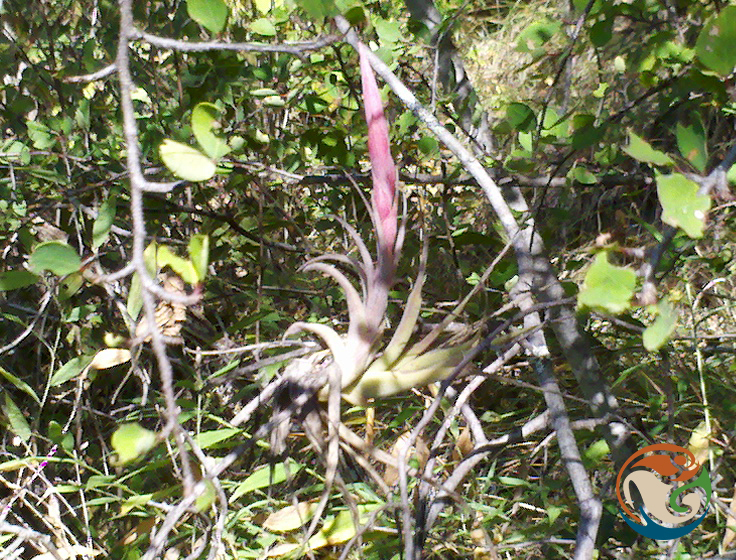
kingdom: Plantae
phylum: Tracheophyta
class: Liliopsida
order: Poales
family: Bromeliaceae
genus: Tillandsia
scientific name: Tillandsia achyrostachys
